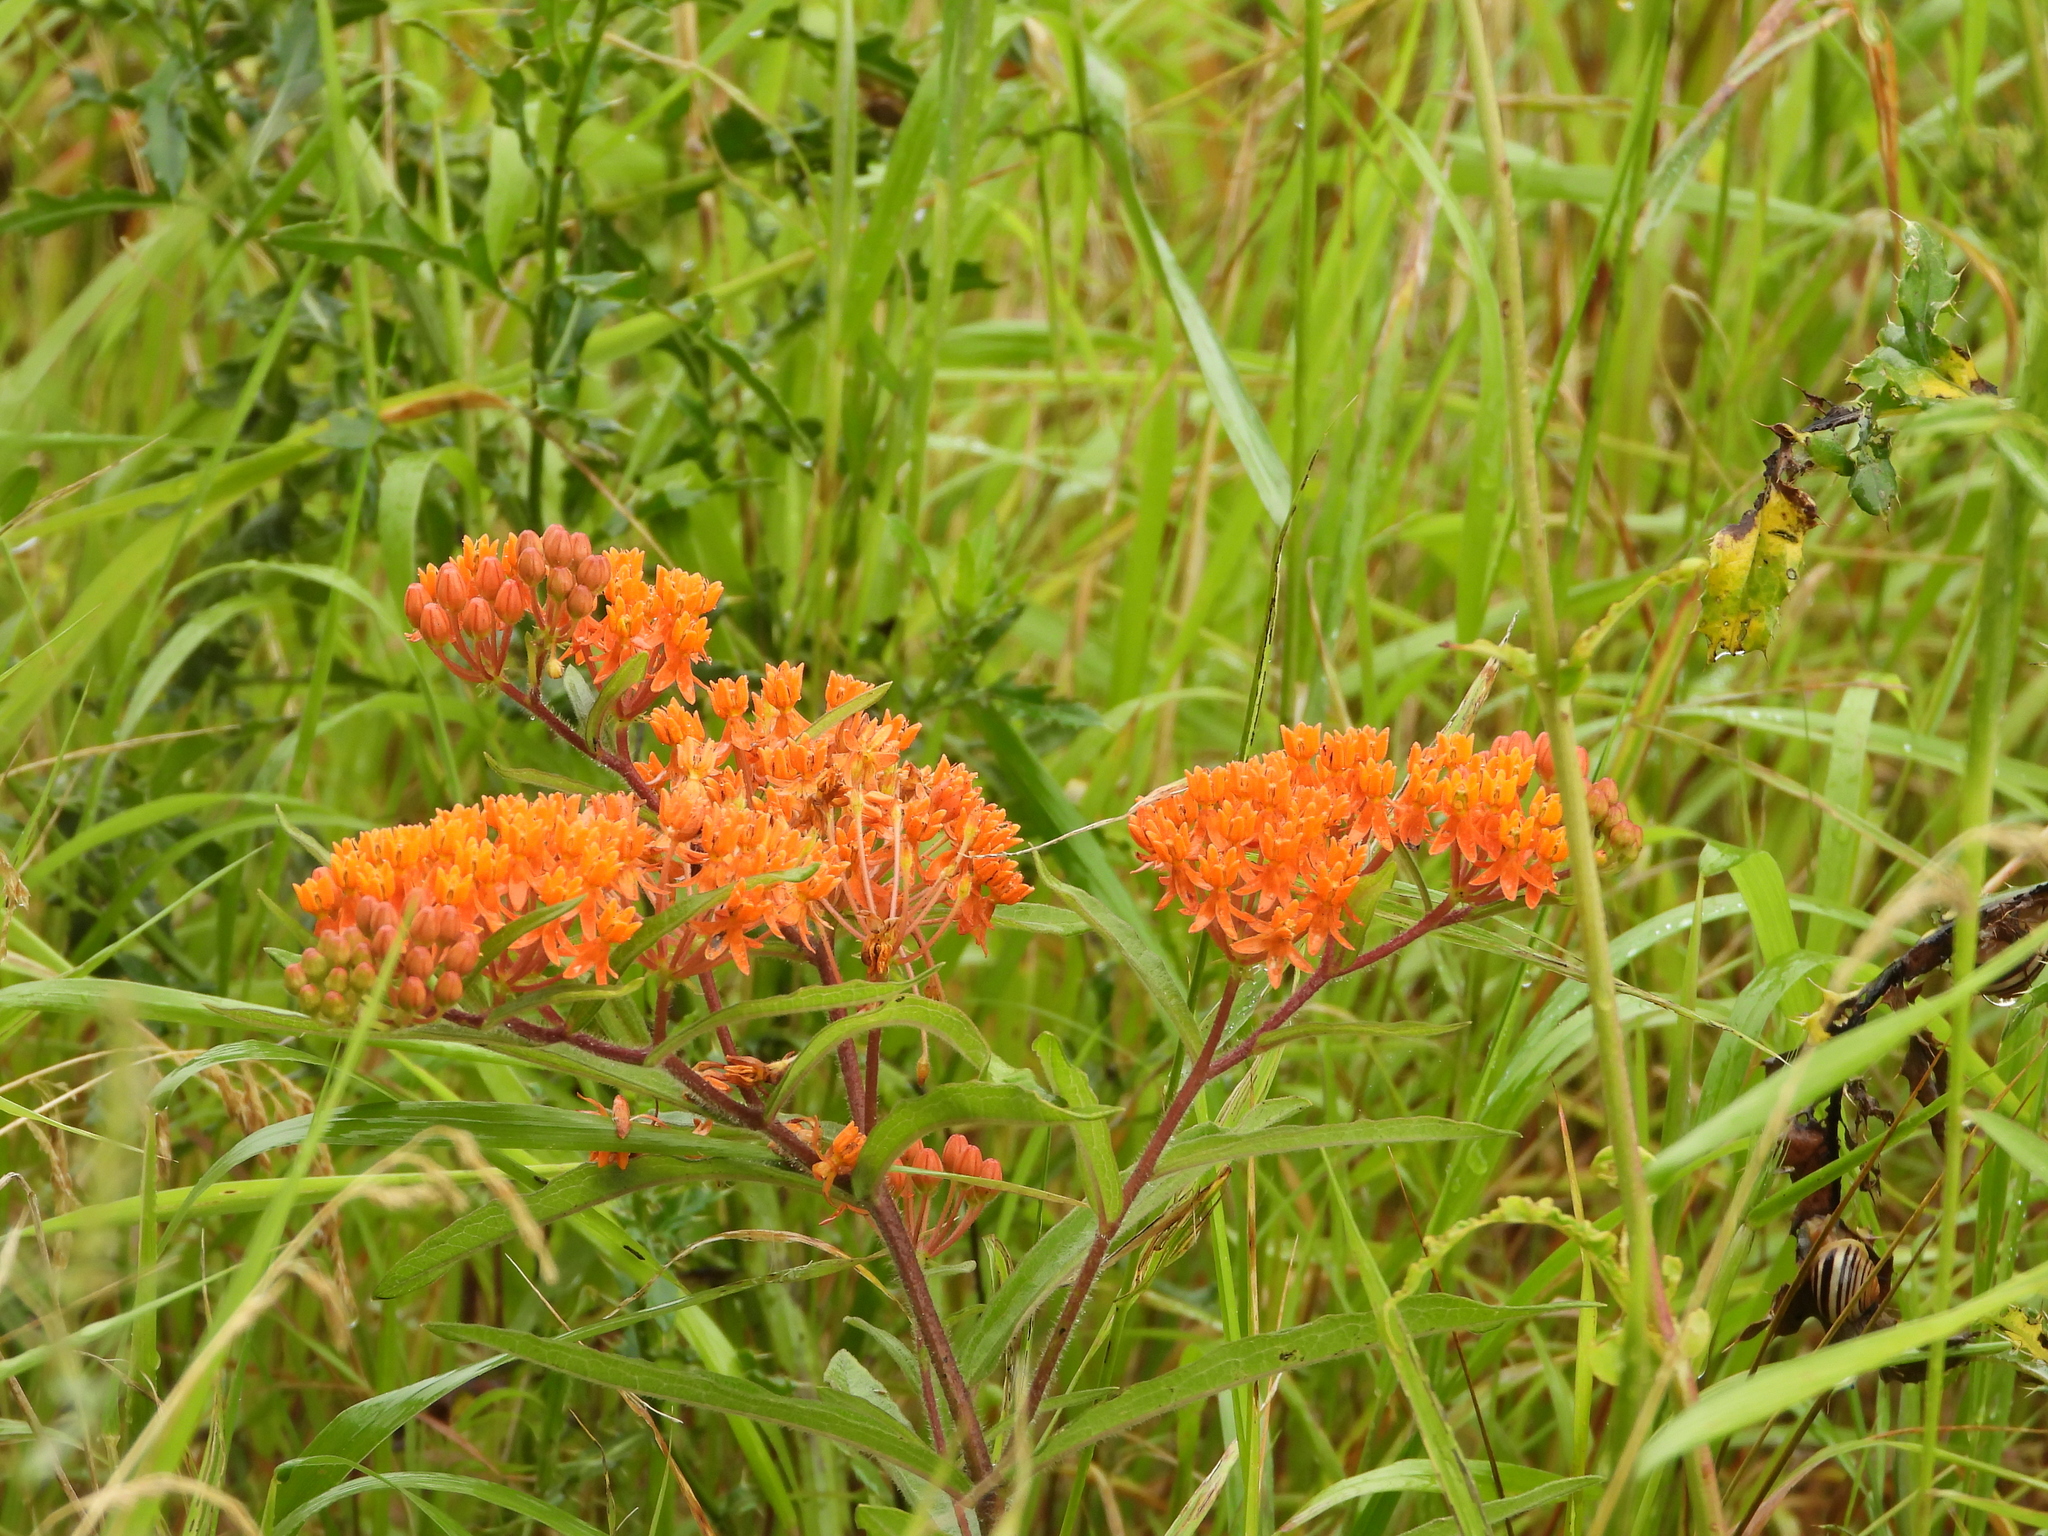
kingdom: Plantae
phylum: Tracheophyta
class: Magnoliopsida
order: Gentianales
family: Apocynaceae
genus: Asclepias
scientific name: Asclepias tuberosa
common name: Butterfly milkweed
